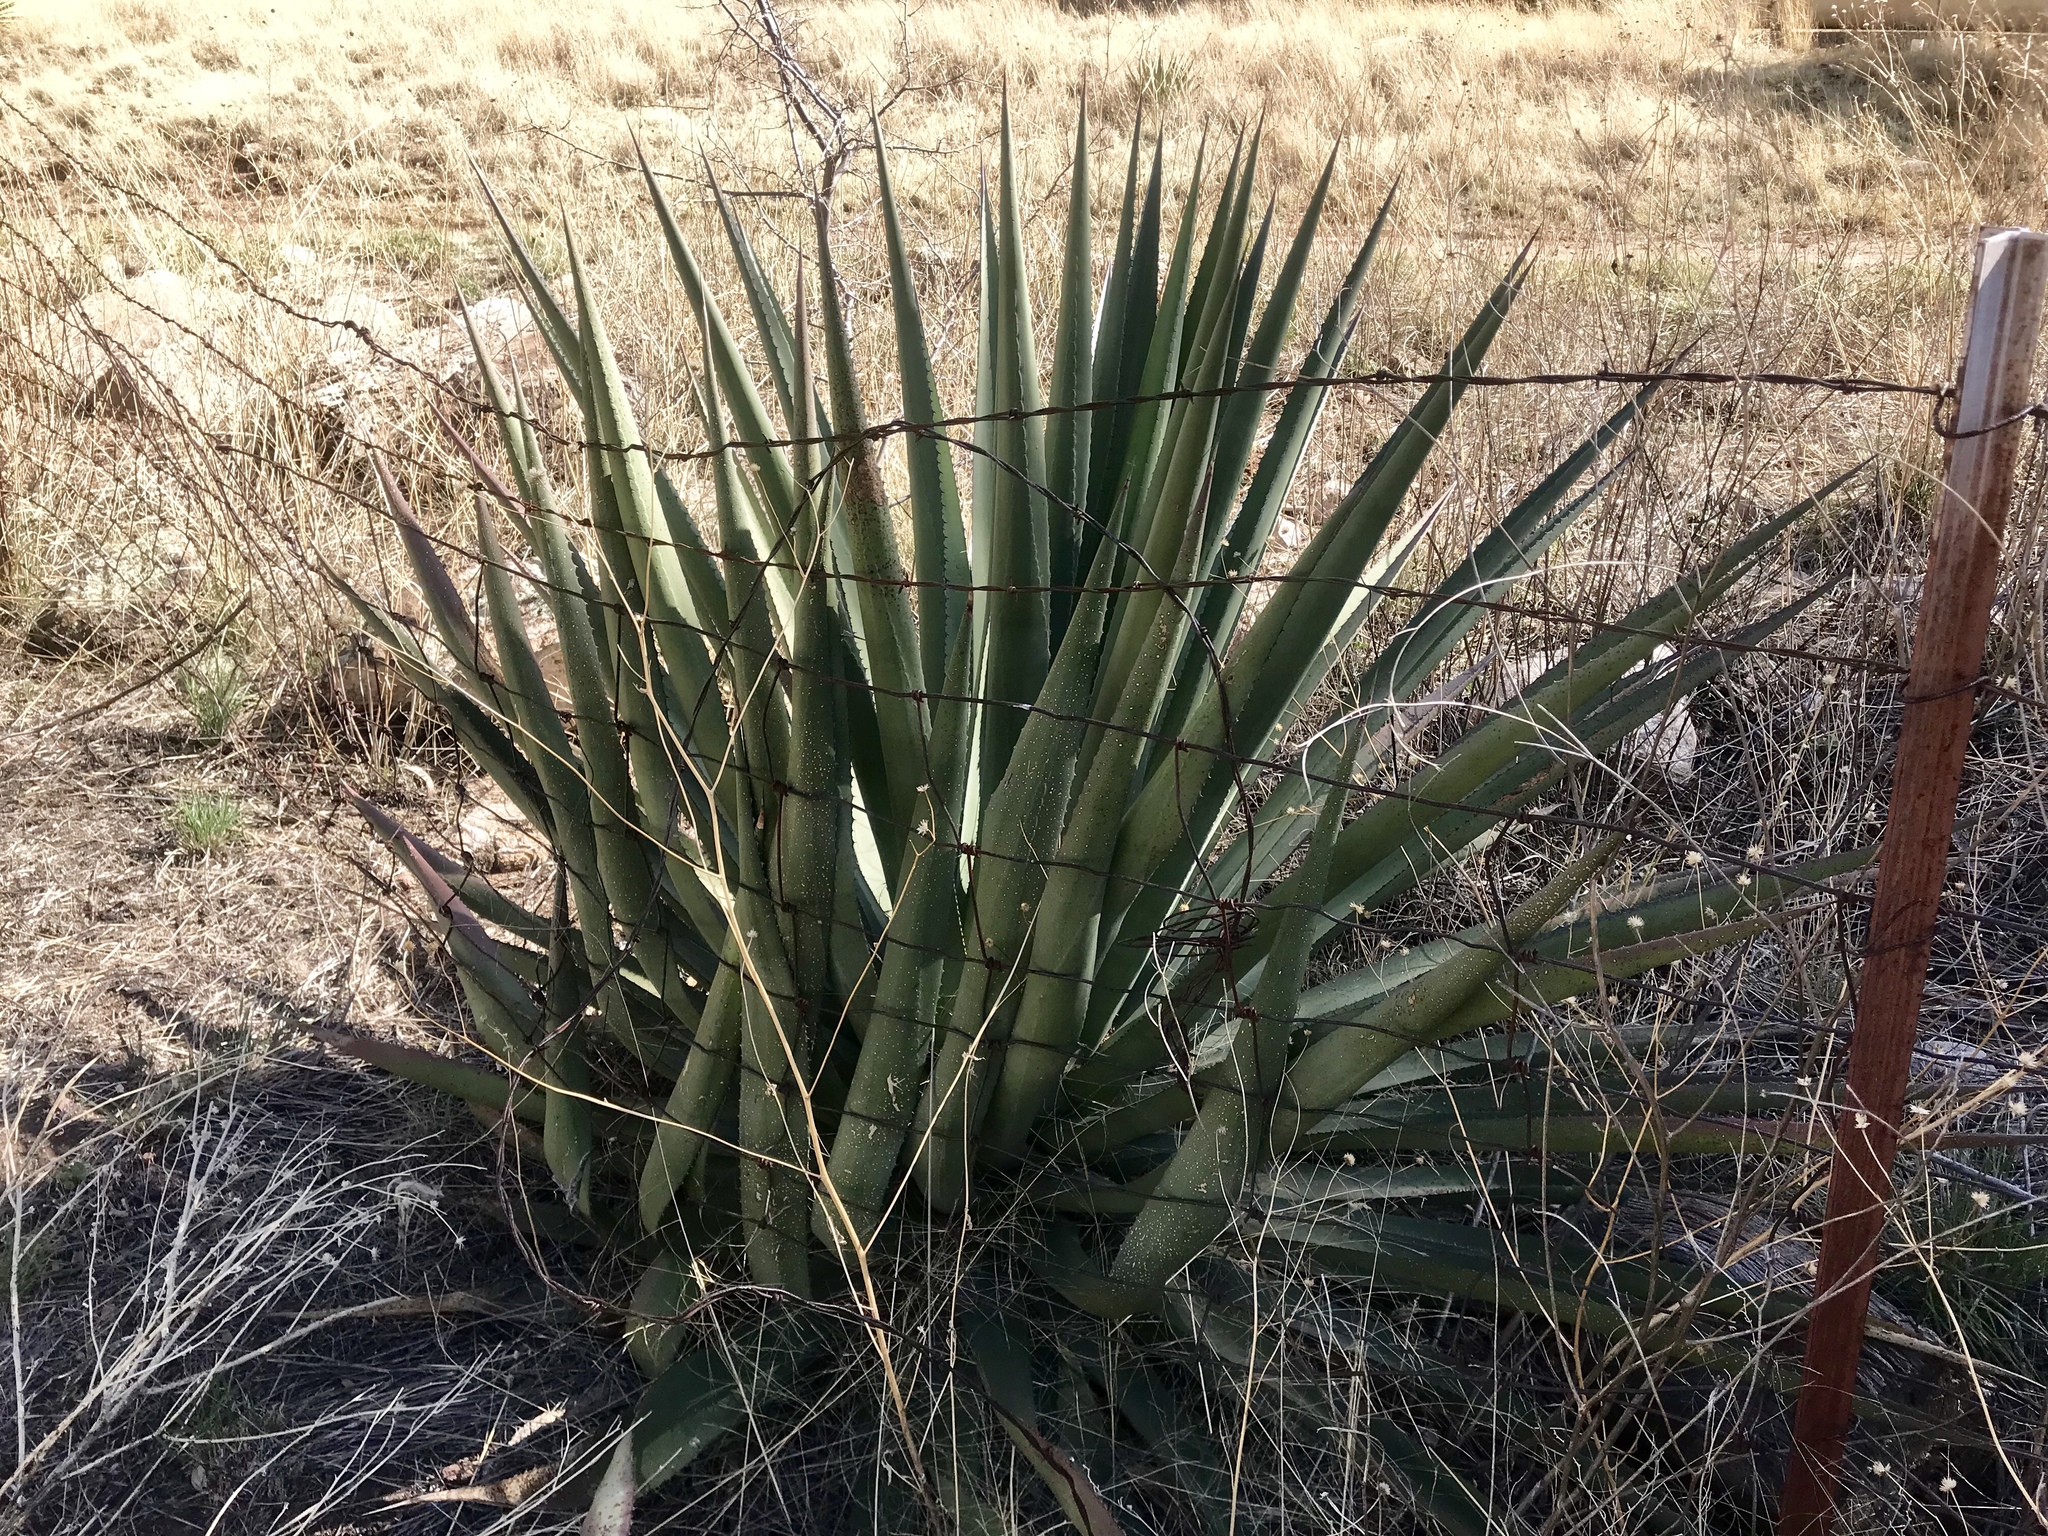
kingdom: Plantae
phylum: Tracheophyta
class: Liliopsida
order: Asparagales
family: Asparagaceae
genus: Agave
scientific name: Agave palmeri
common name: Palmer agave
